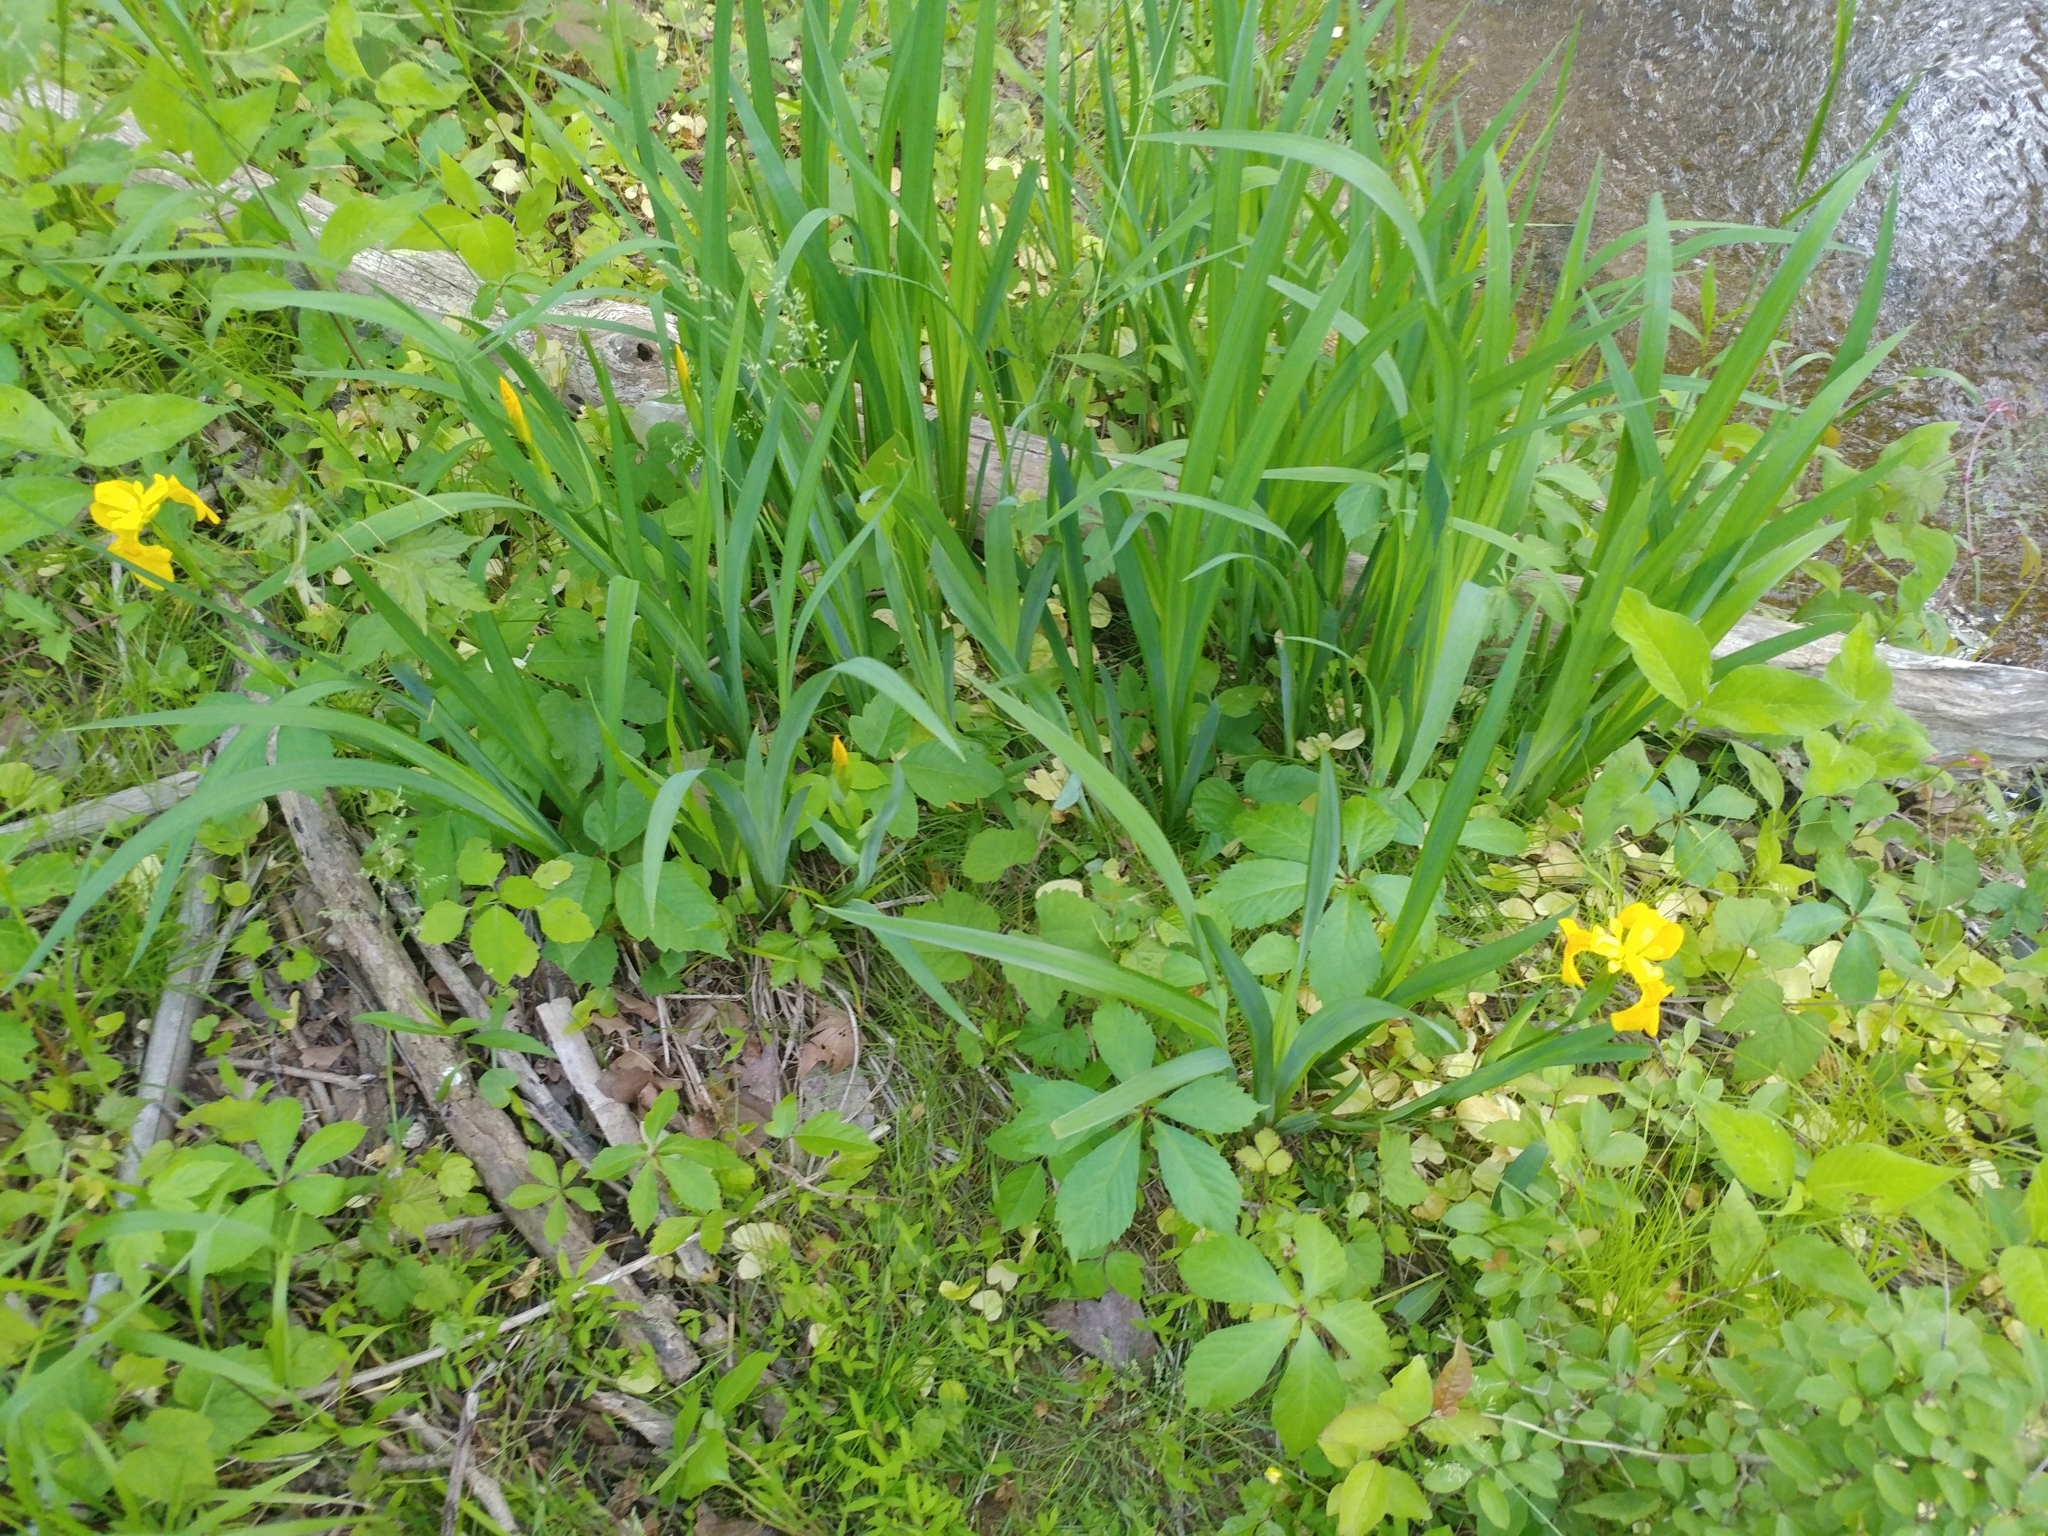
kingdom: Plantae
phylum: Tracheophyta
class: Liliopsida
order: Asparagales
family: Iridaceae
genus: Iris
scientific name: Iris pseudacorus
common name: Yellow flag
